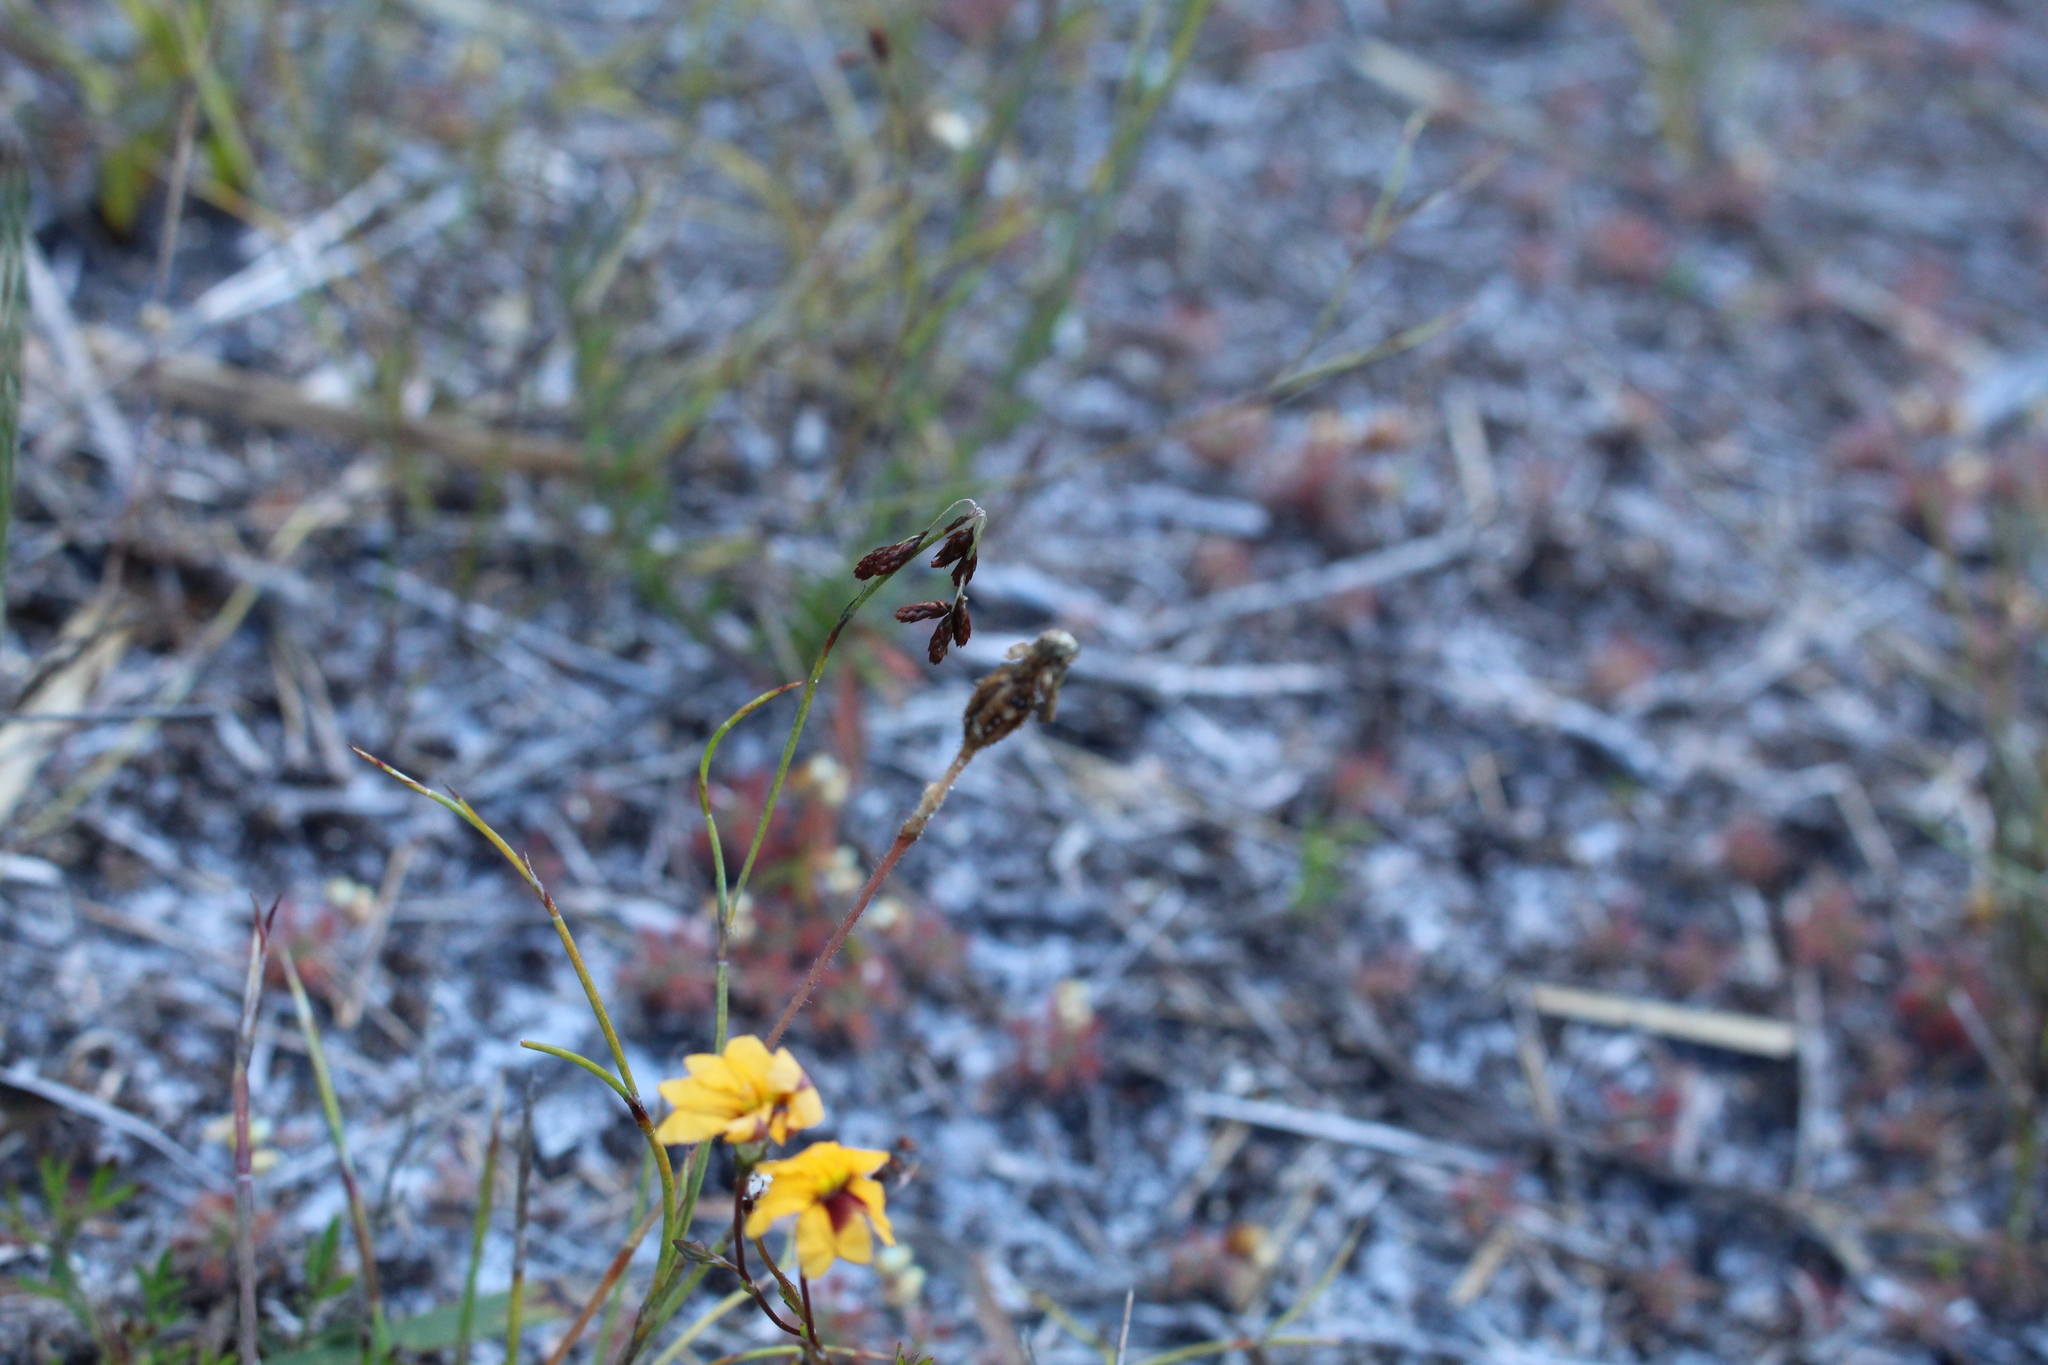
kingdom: Plantae
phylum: Tracheophyta
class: Magnoliopsida
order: Asterales
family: Goodeniaceae
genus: Goodenia
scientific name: Goodenia trinervis
